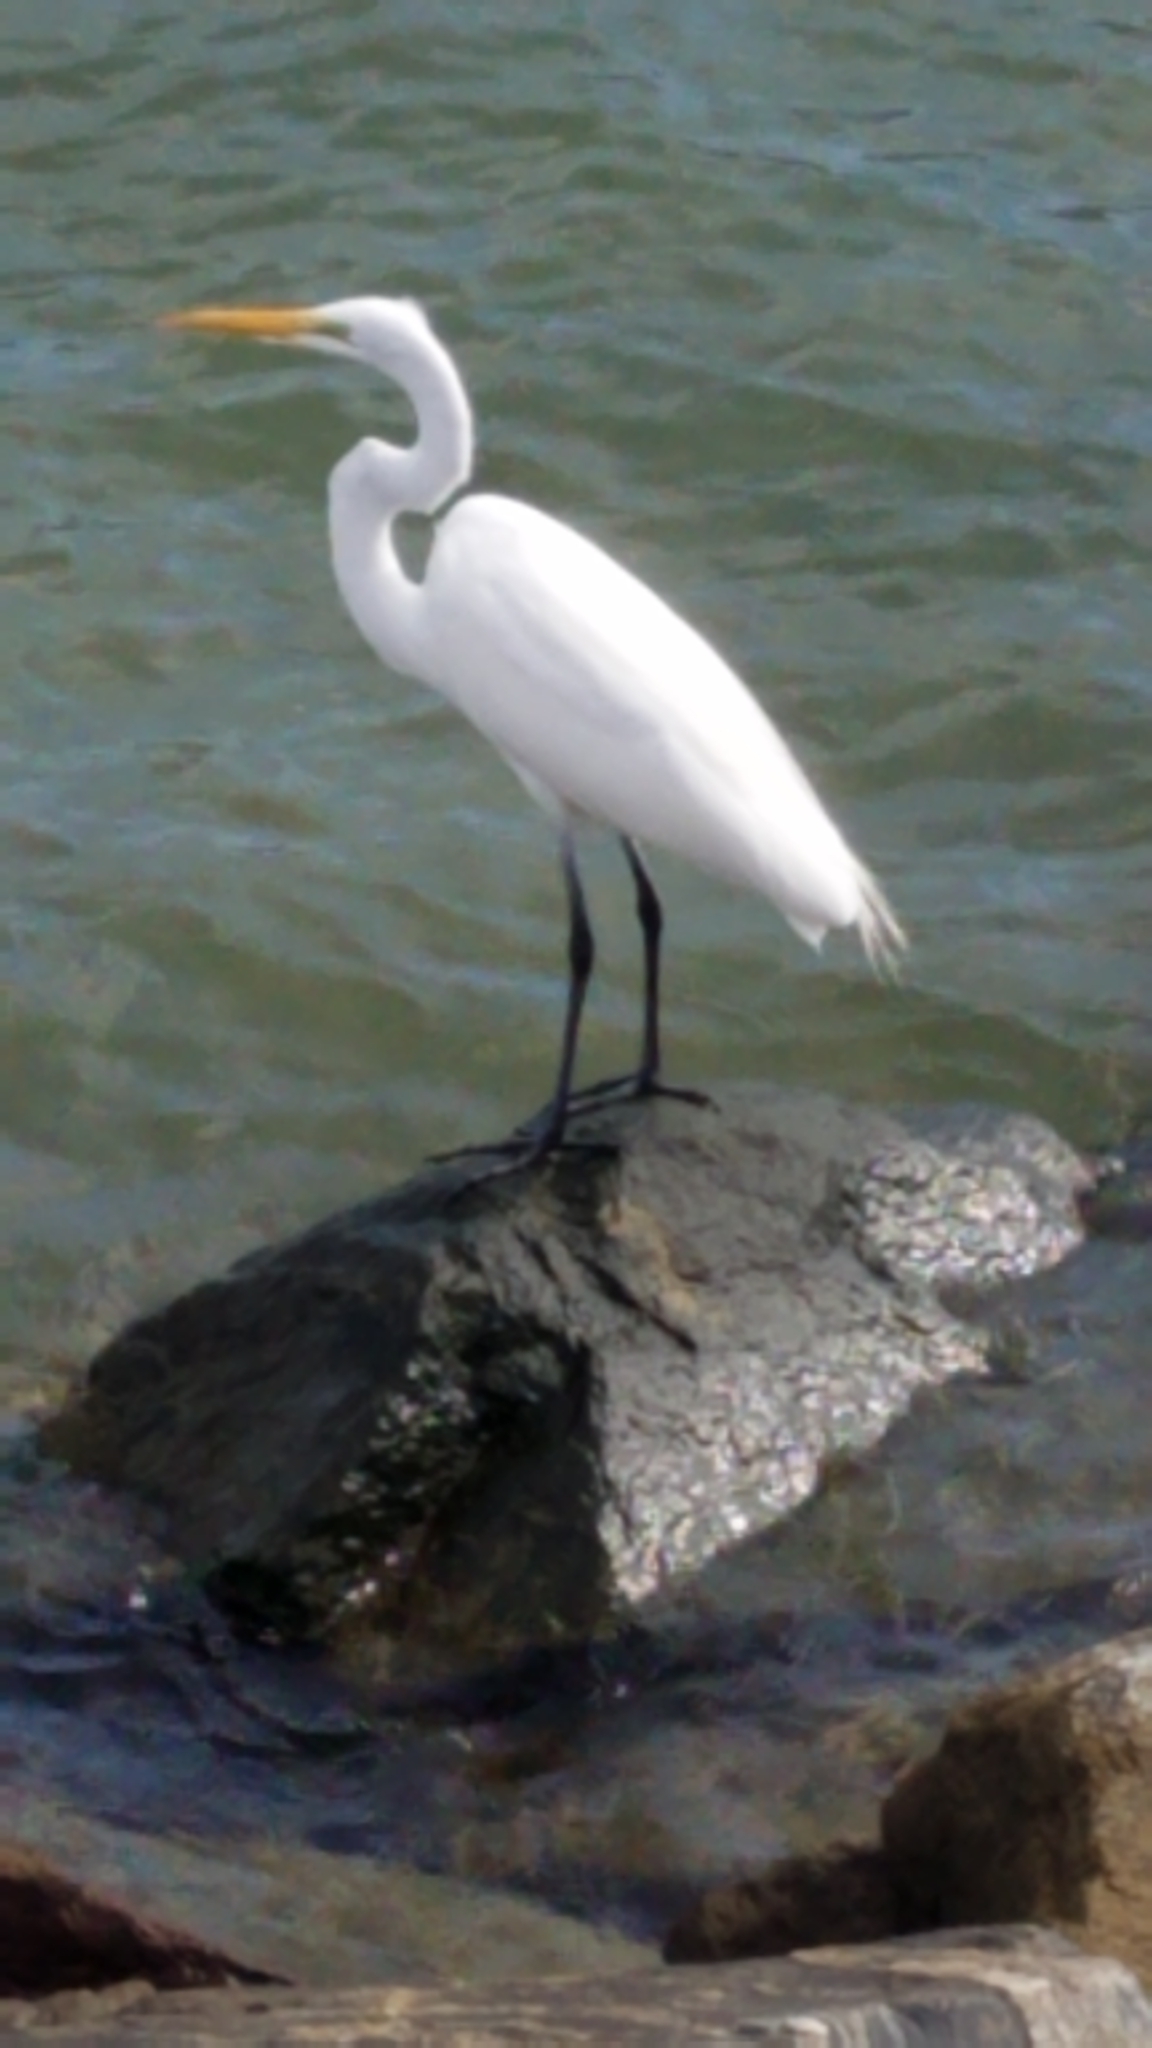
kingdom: Animalia
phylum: Chordata
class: Aves
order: Pelecaniformes
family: Ardeidae
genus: Ardea
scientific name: Ardea alba
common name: Great egret
